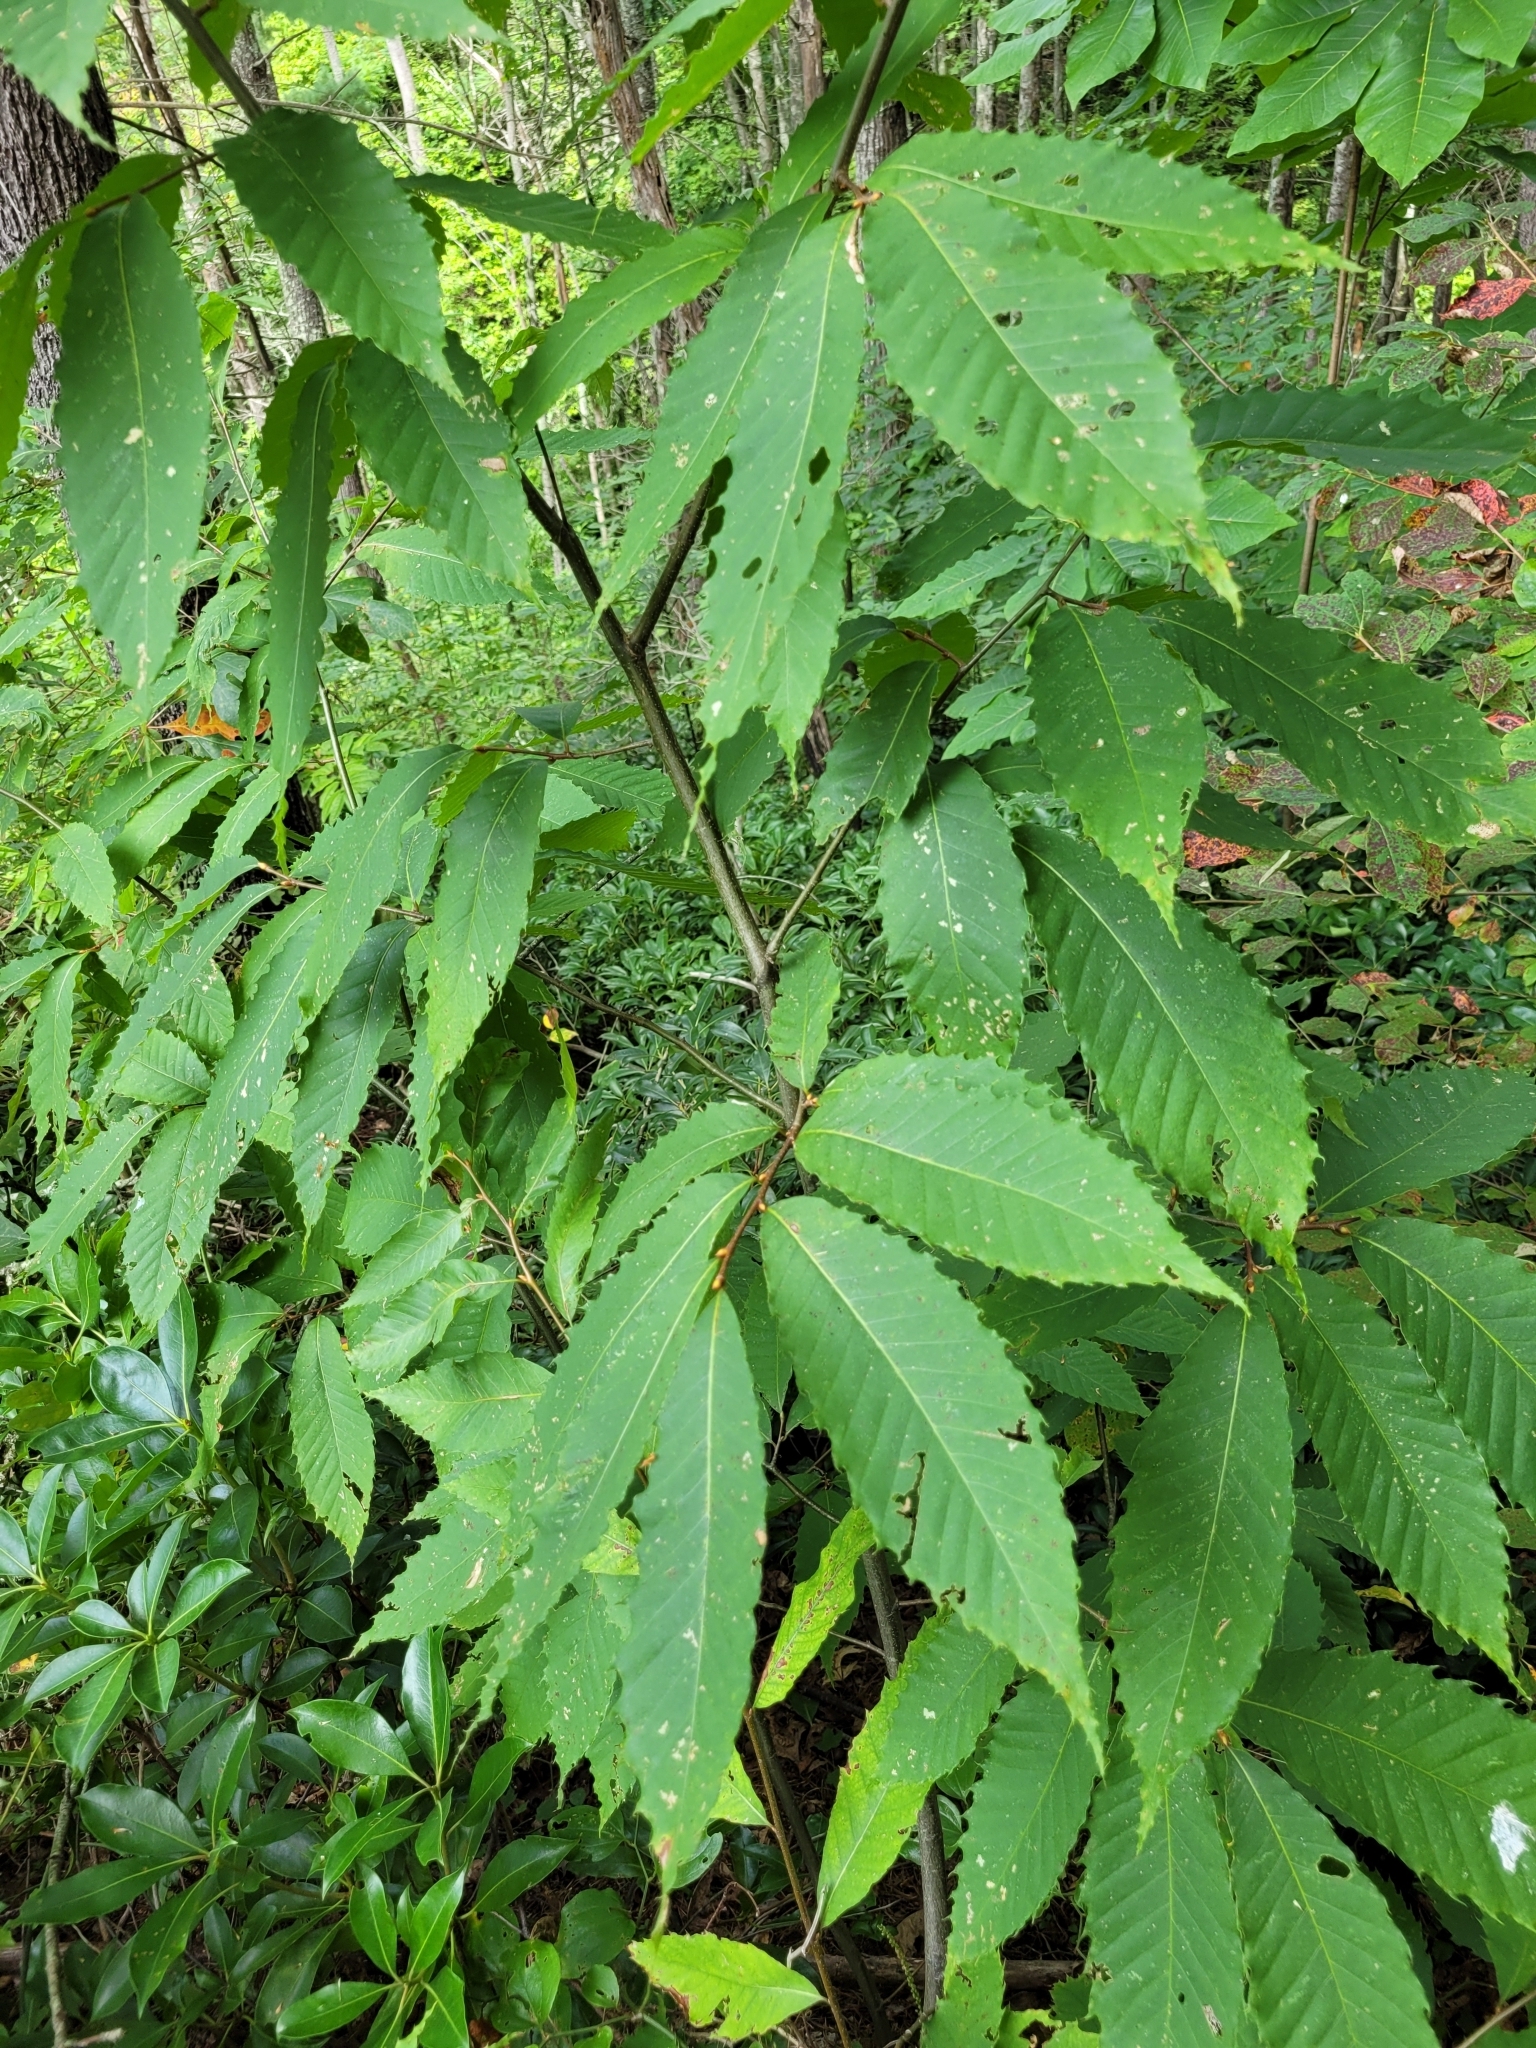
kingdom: Plantae
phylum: Tracheophyta
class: Magnoliopsida
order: Fagales
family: Fagaceae
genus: Castanea
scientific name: Castanea dentata
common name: American chestnut
